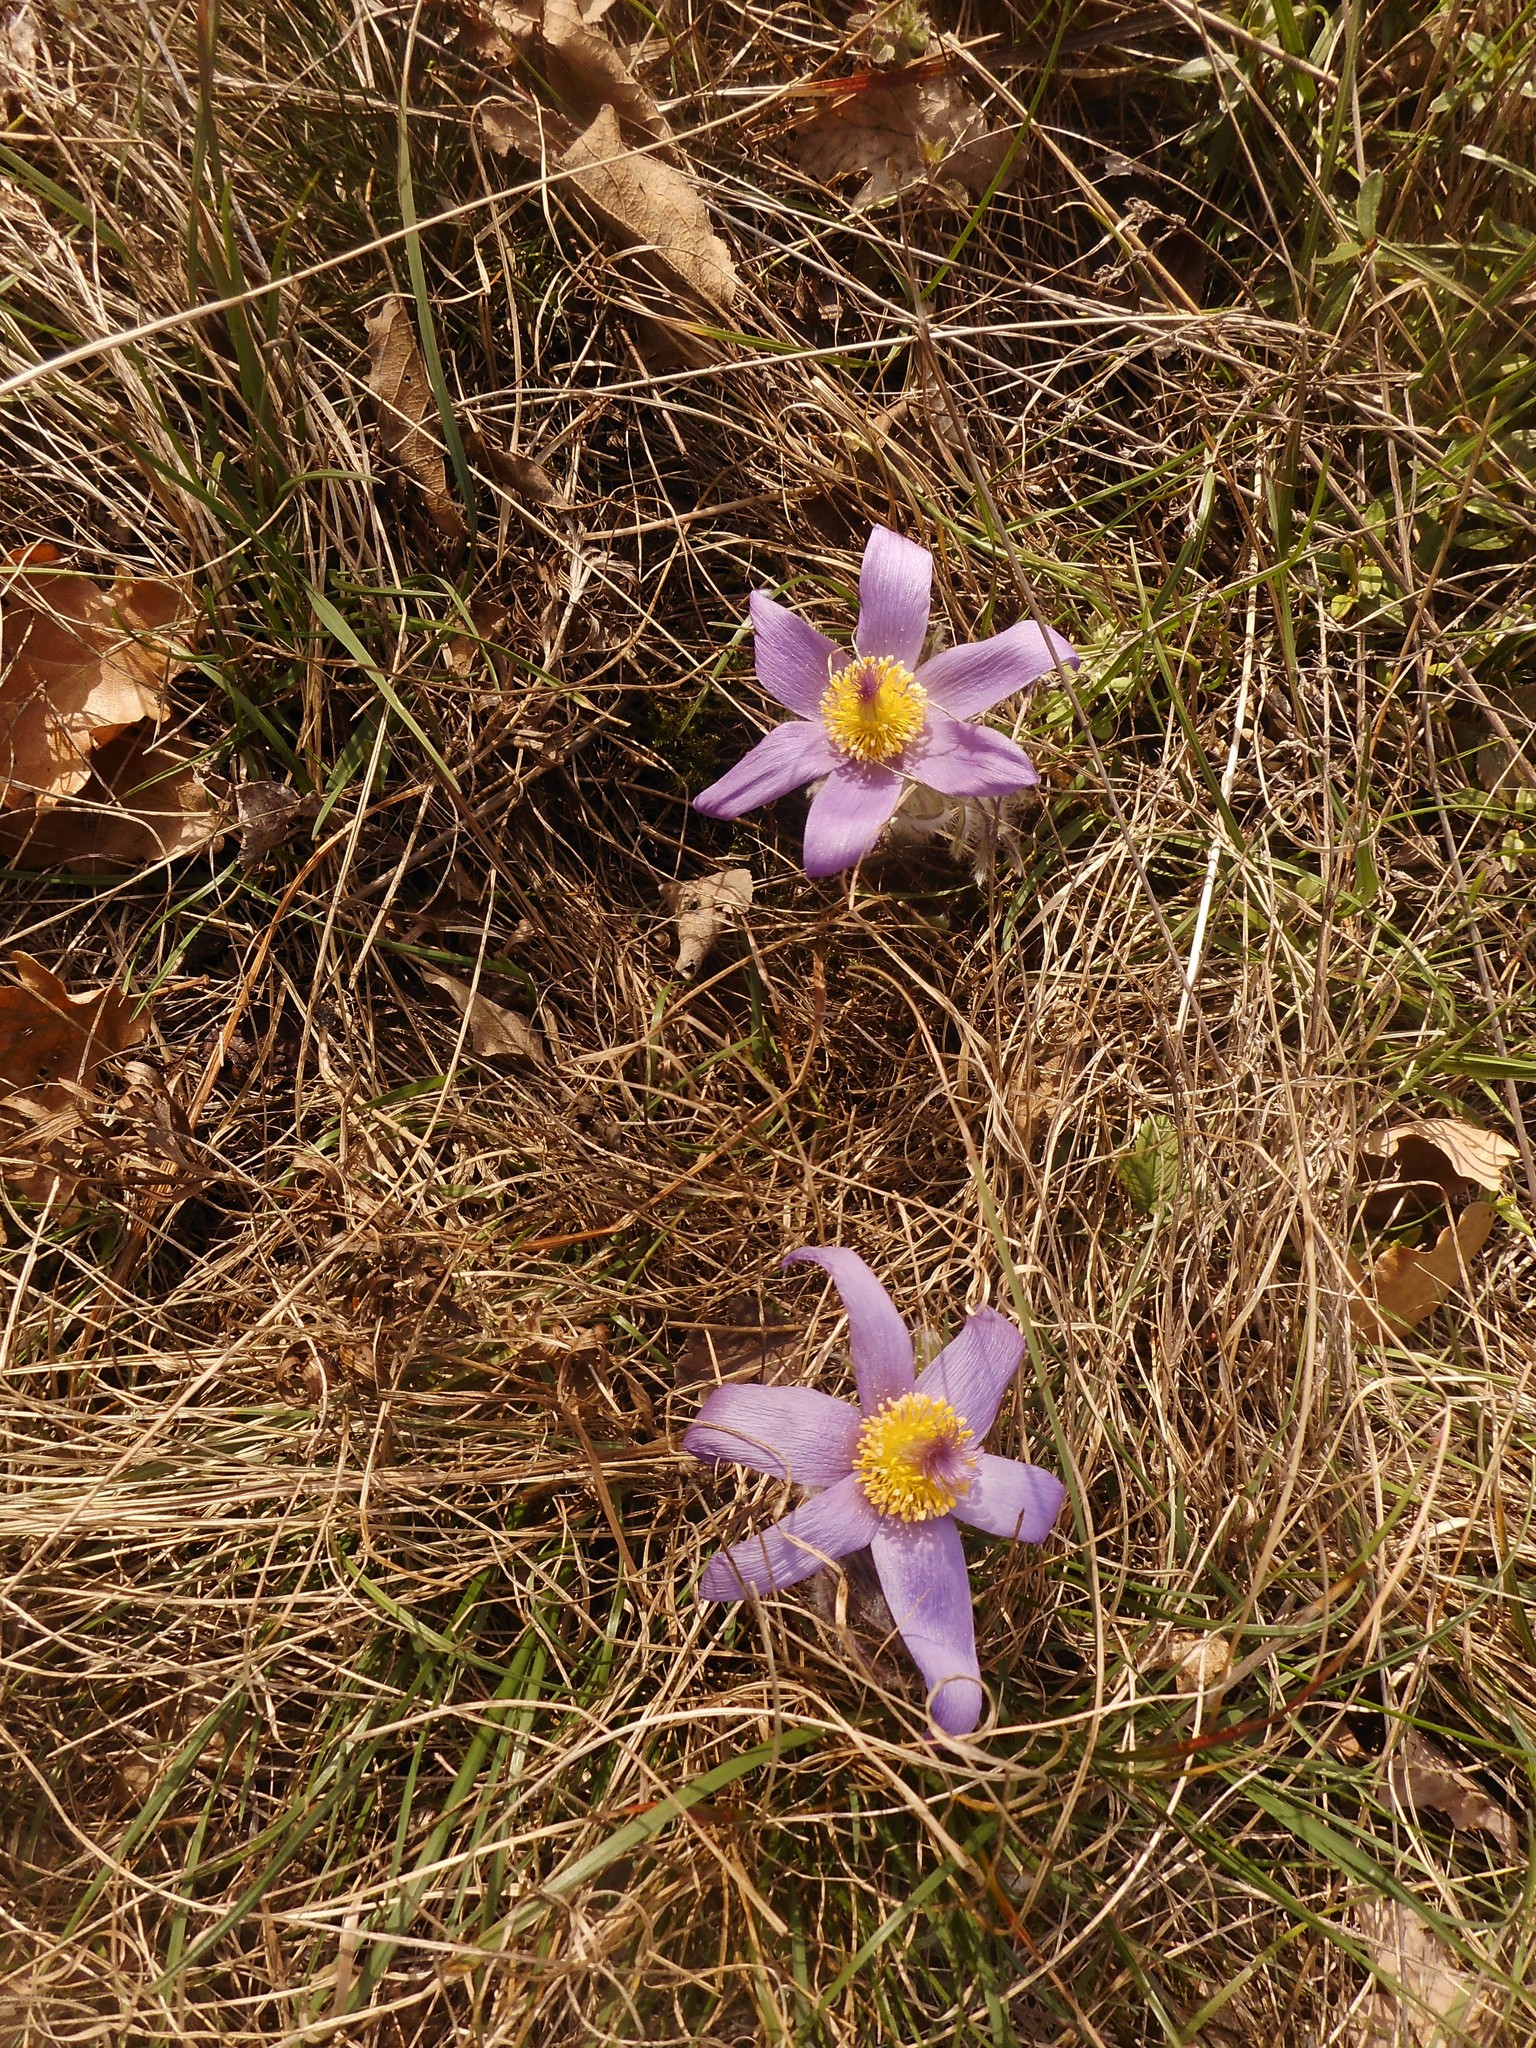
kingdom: Plantae
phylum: Tracheophyta
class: Magnoliopsida
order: Ranunculales
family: Ranunculaceae
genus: Pulsatilla
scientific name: Pulsatilla grandis
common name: Greater pasque flower
